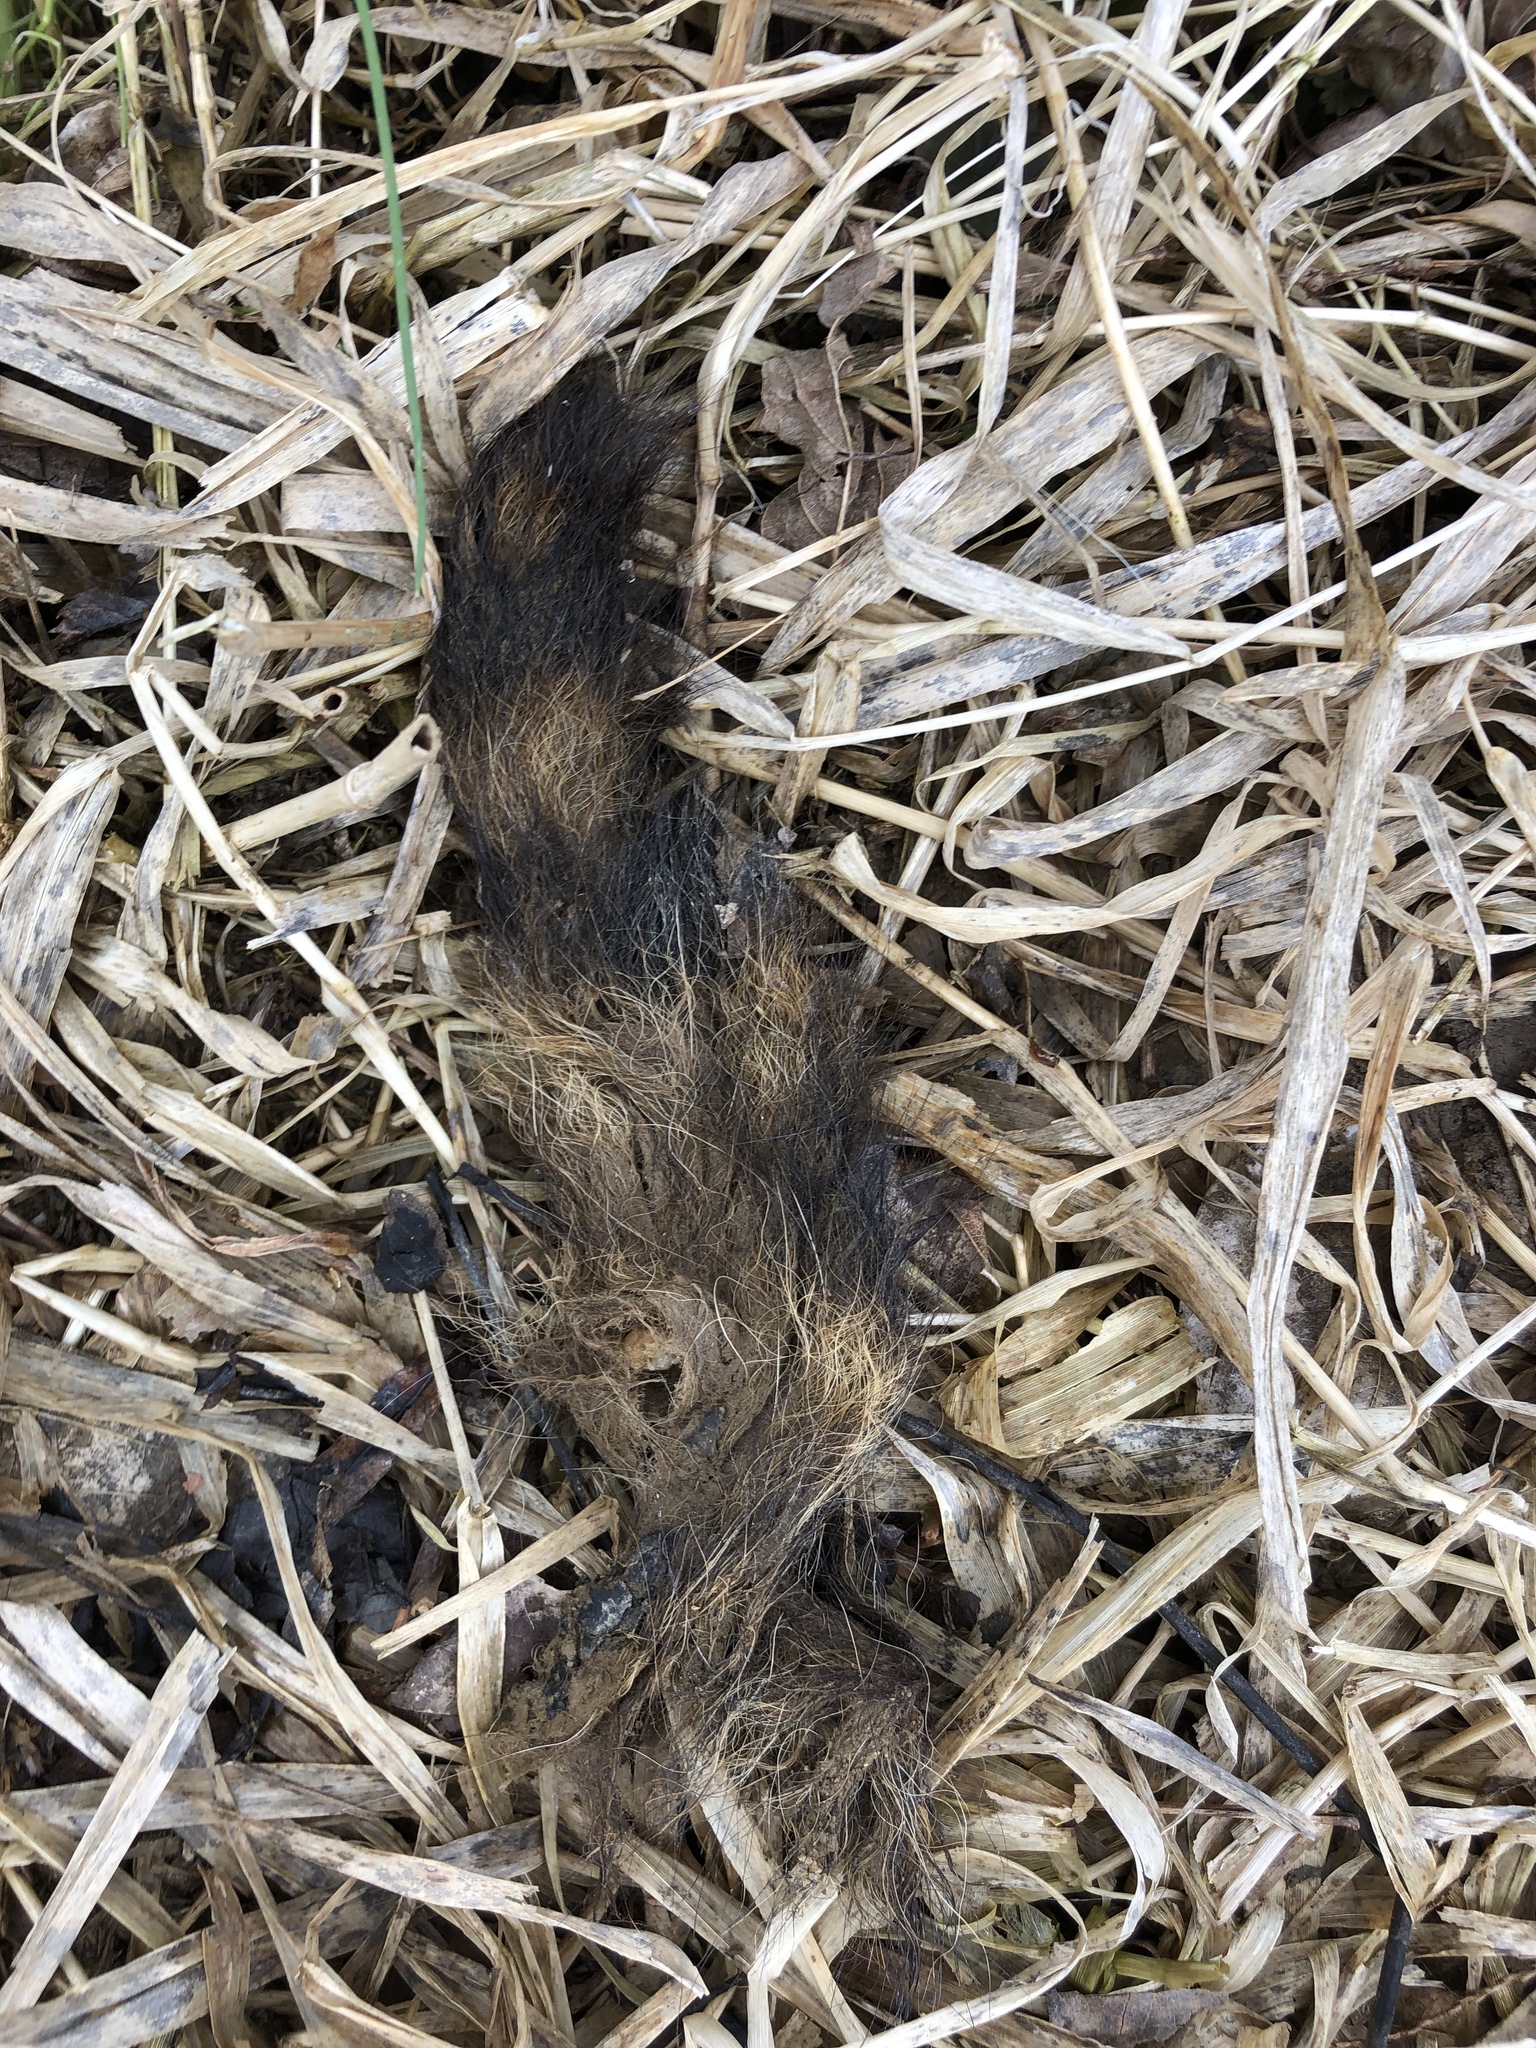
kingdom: Animalia
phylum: Chordata
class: Mammalia
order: Carnivora
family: Procyonidae
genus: Procyon
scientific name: Procyon lotor
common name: Raccoon
